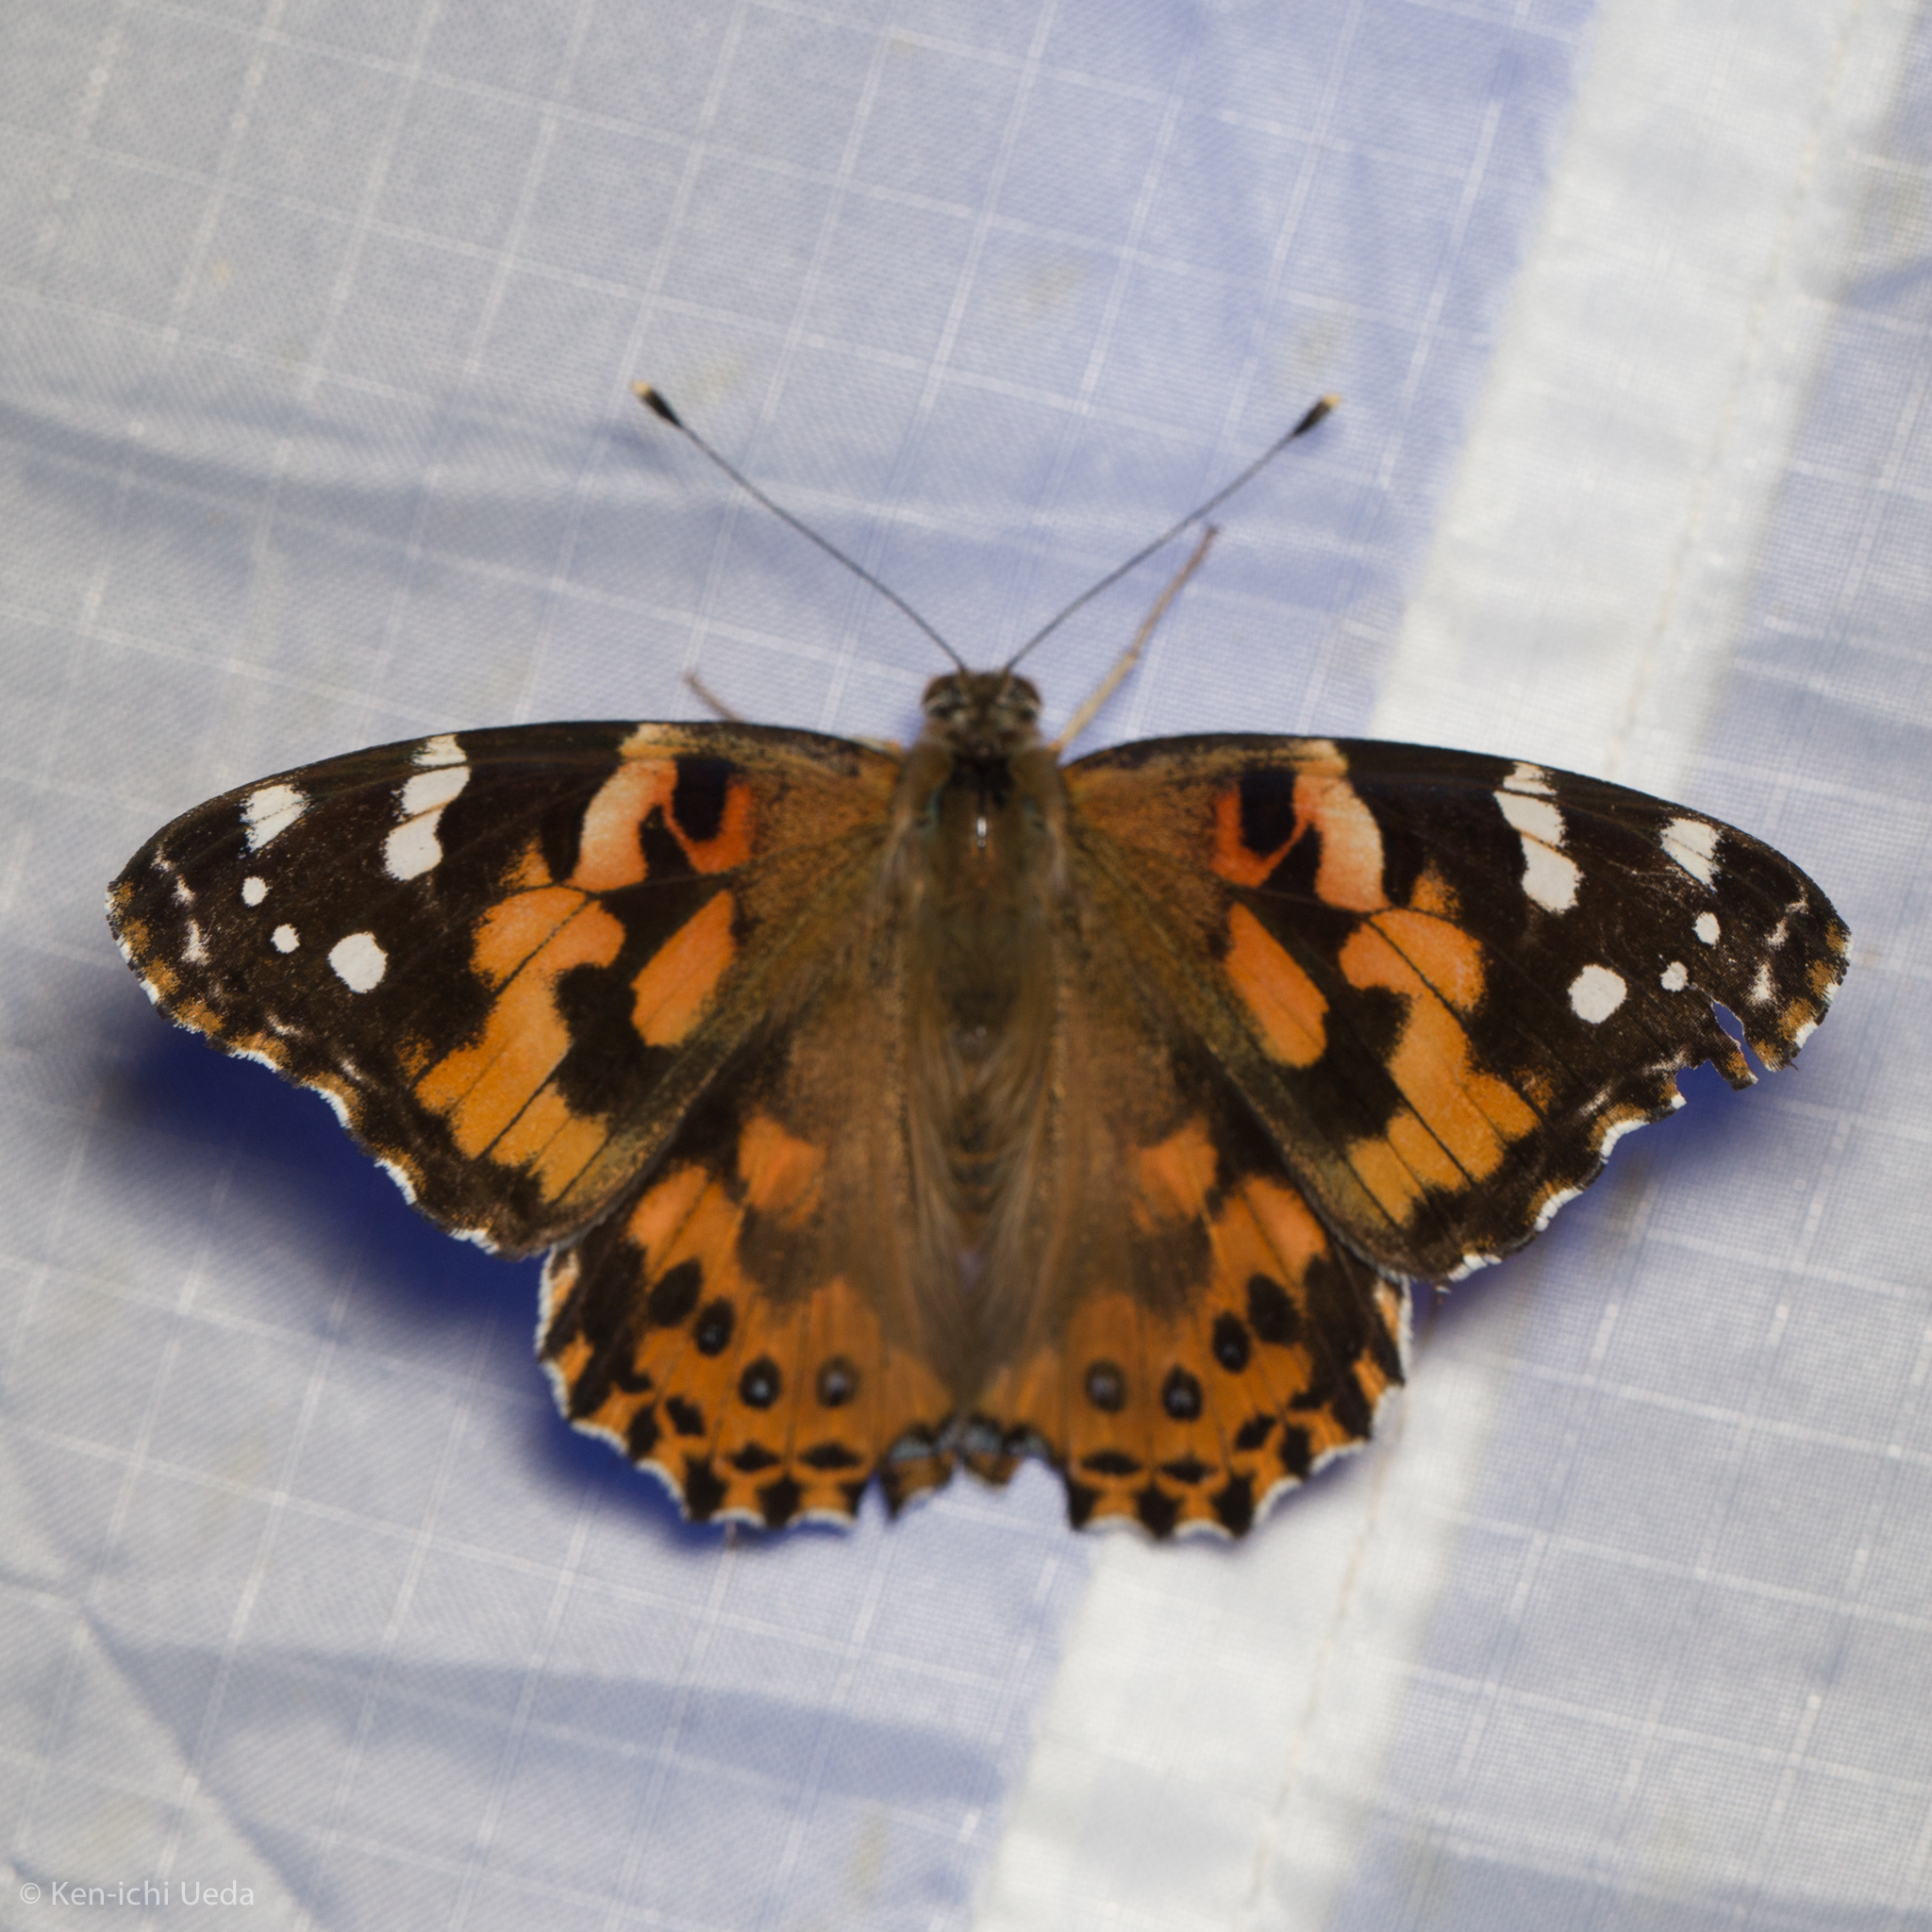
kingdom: Animalia
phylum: Arthropoda
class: Insecta
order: Lepidoptera
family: Nymphalidae
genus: Vanessa
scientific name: Vanessa cardui
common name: Painted lady
